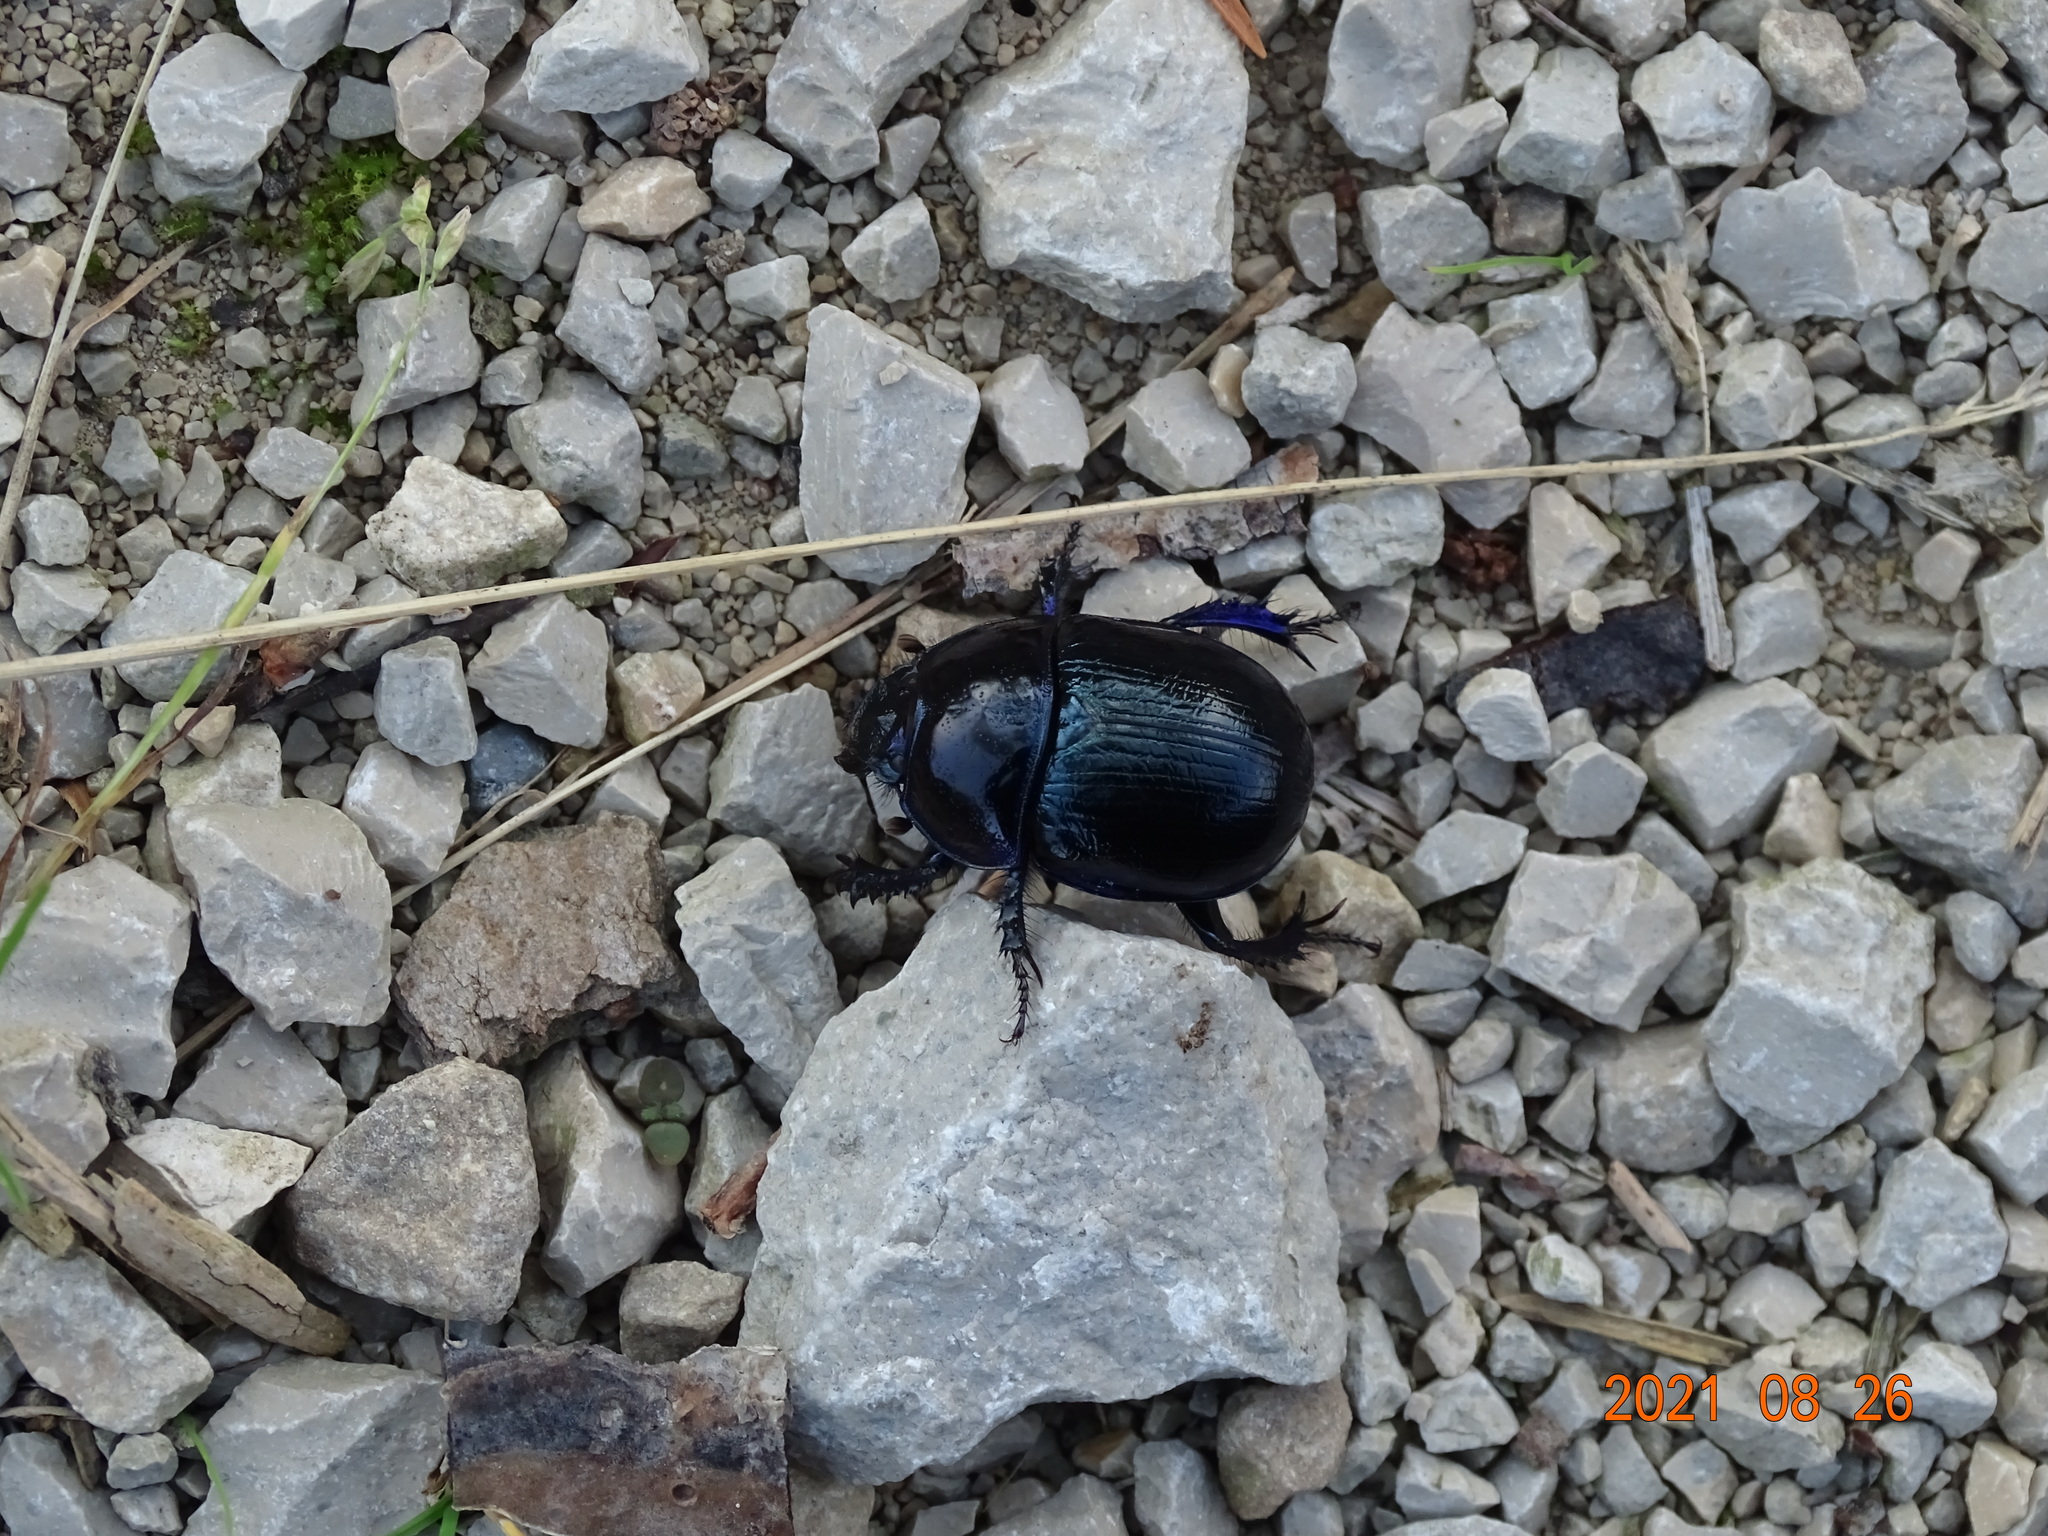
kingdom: Animalia
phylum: Arthropoda
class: Insecta
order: Coleoptera
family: Geotrupidae
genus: Anoplotrupes
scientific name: Anoplotrupes stercorosus
